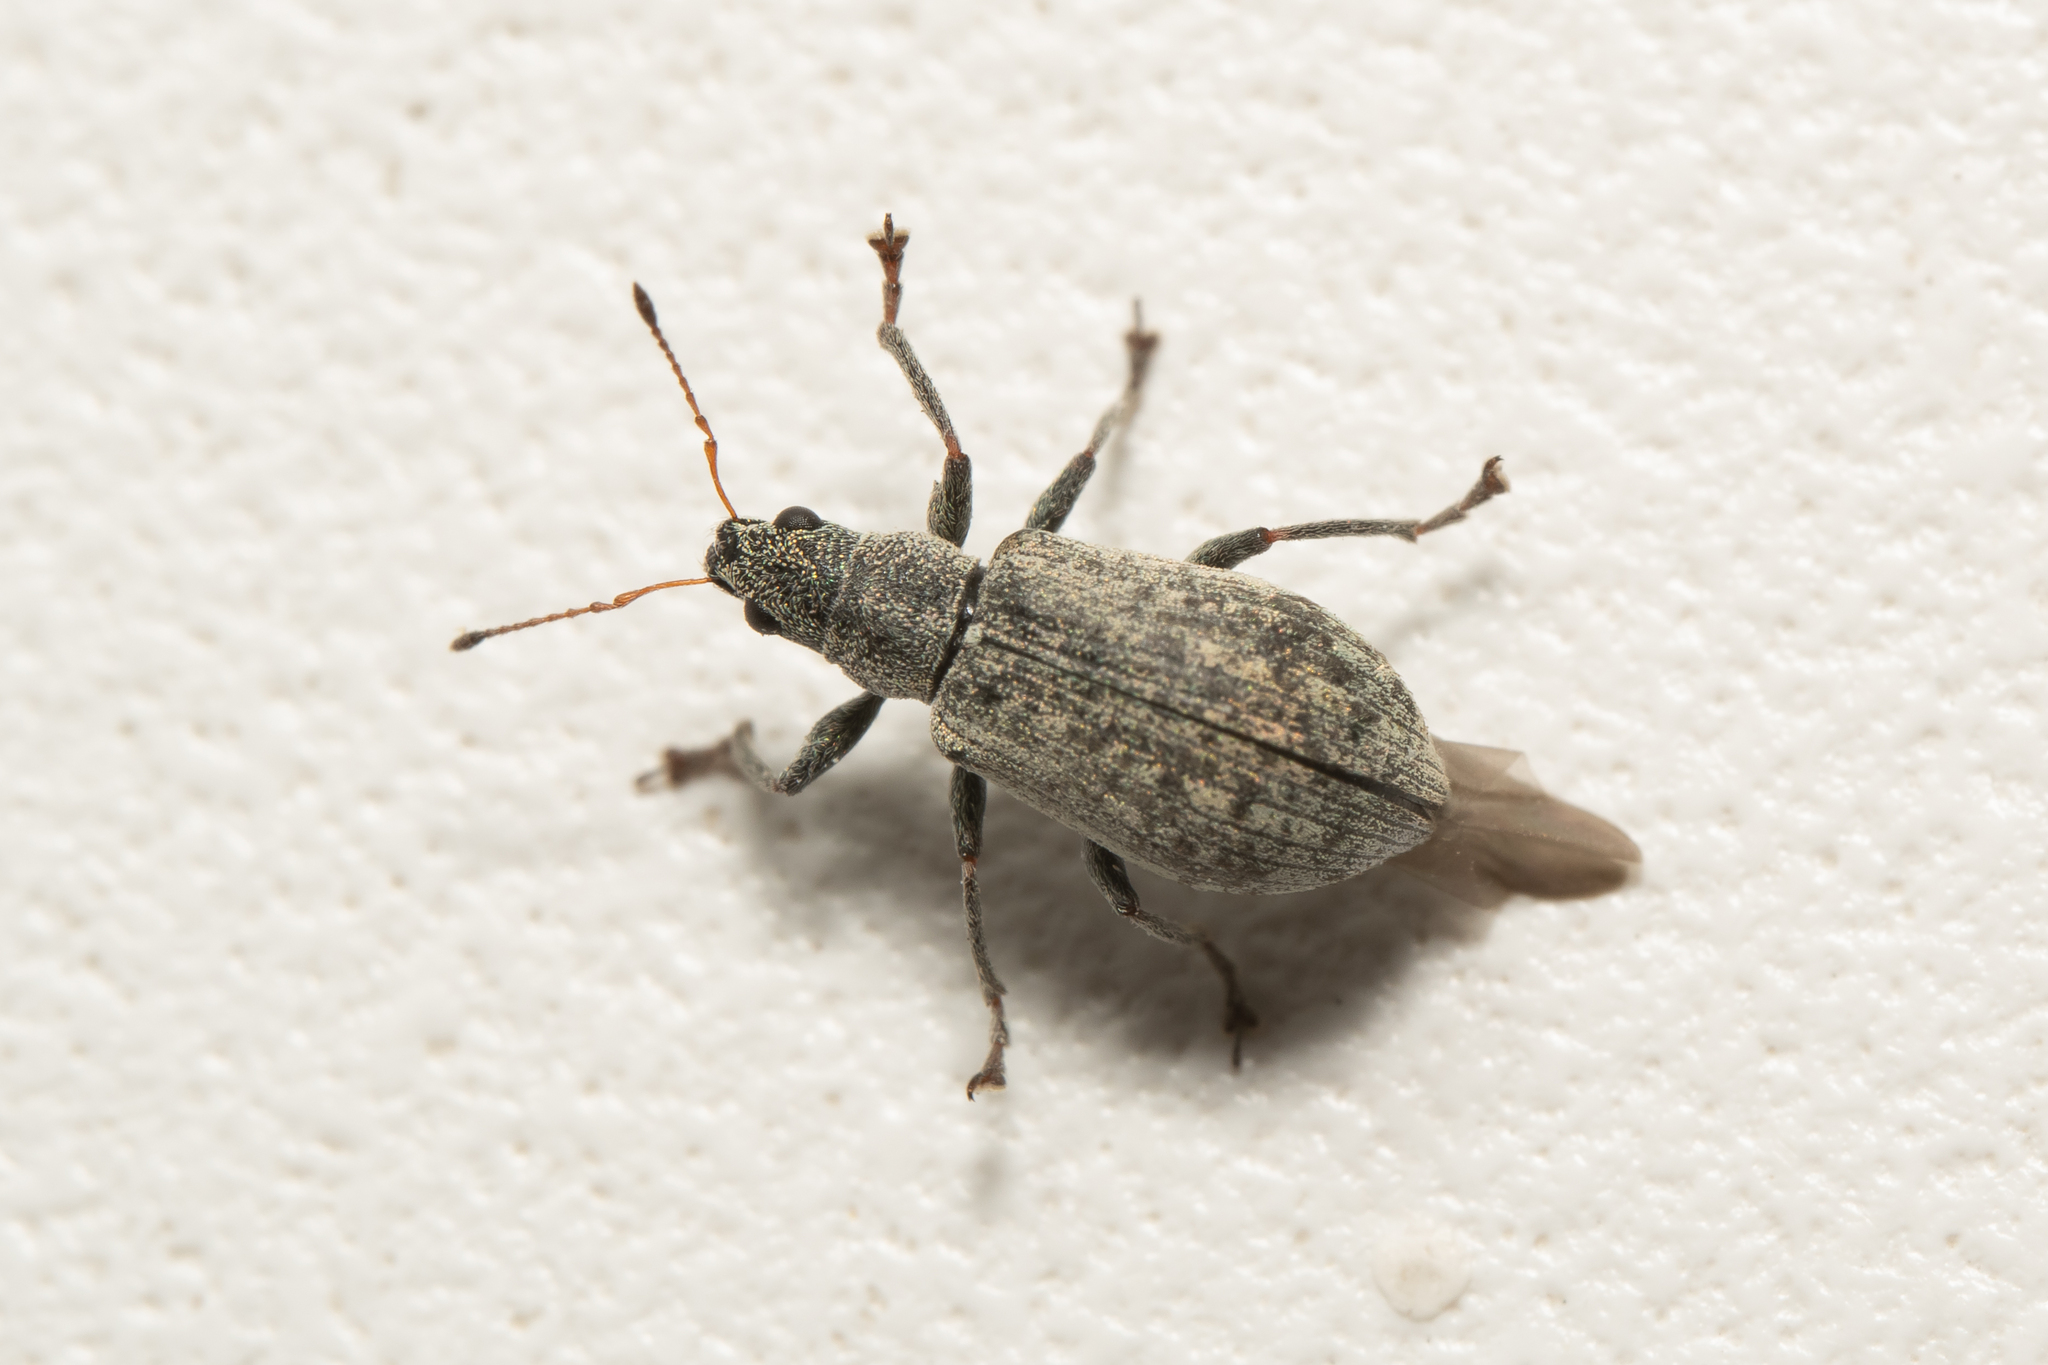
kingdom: Animalia
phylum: Arthropoda
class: Insecta
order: Coleoptera
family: Curculionidae
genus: Polydrusus
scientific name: Polydrusus cervinus
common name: Weevil
